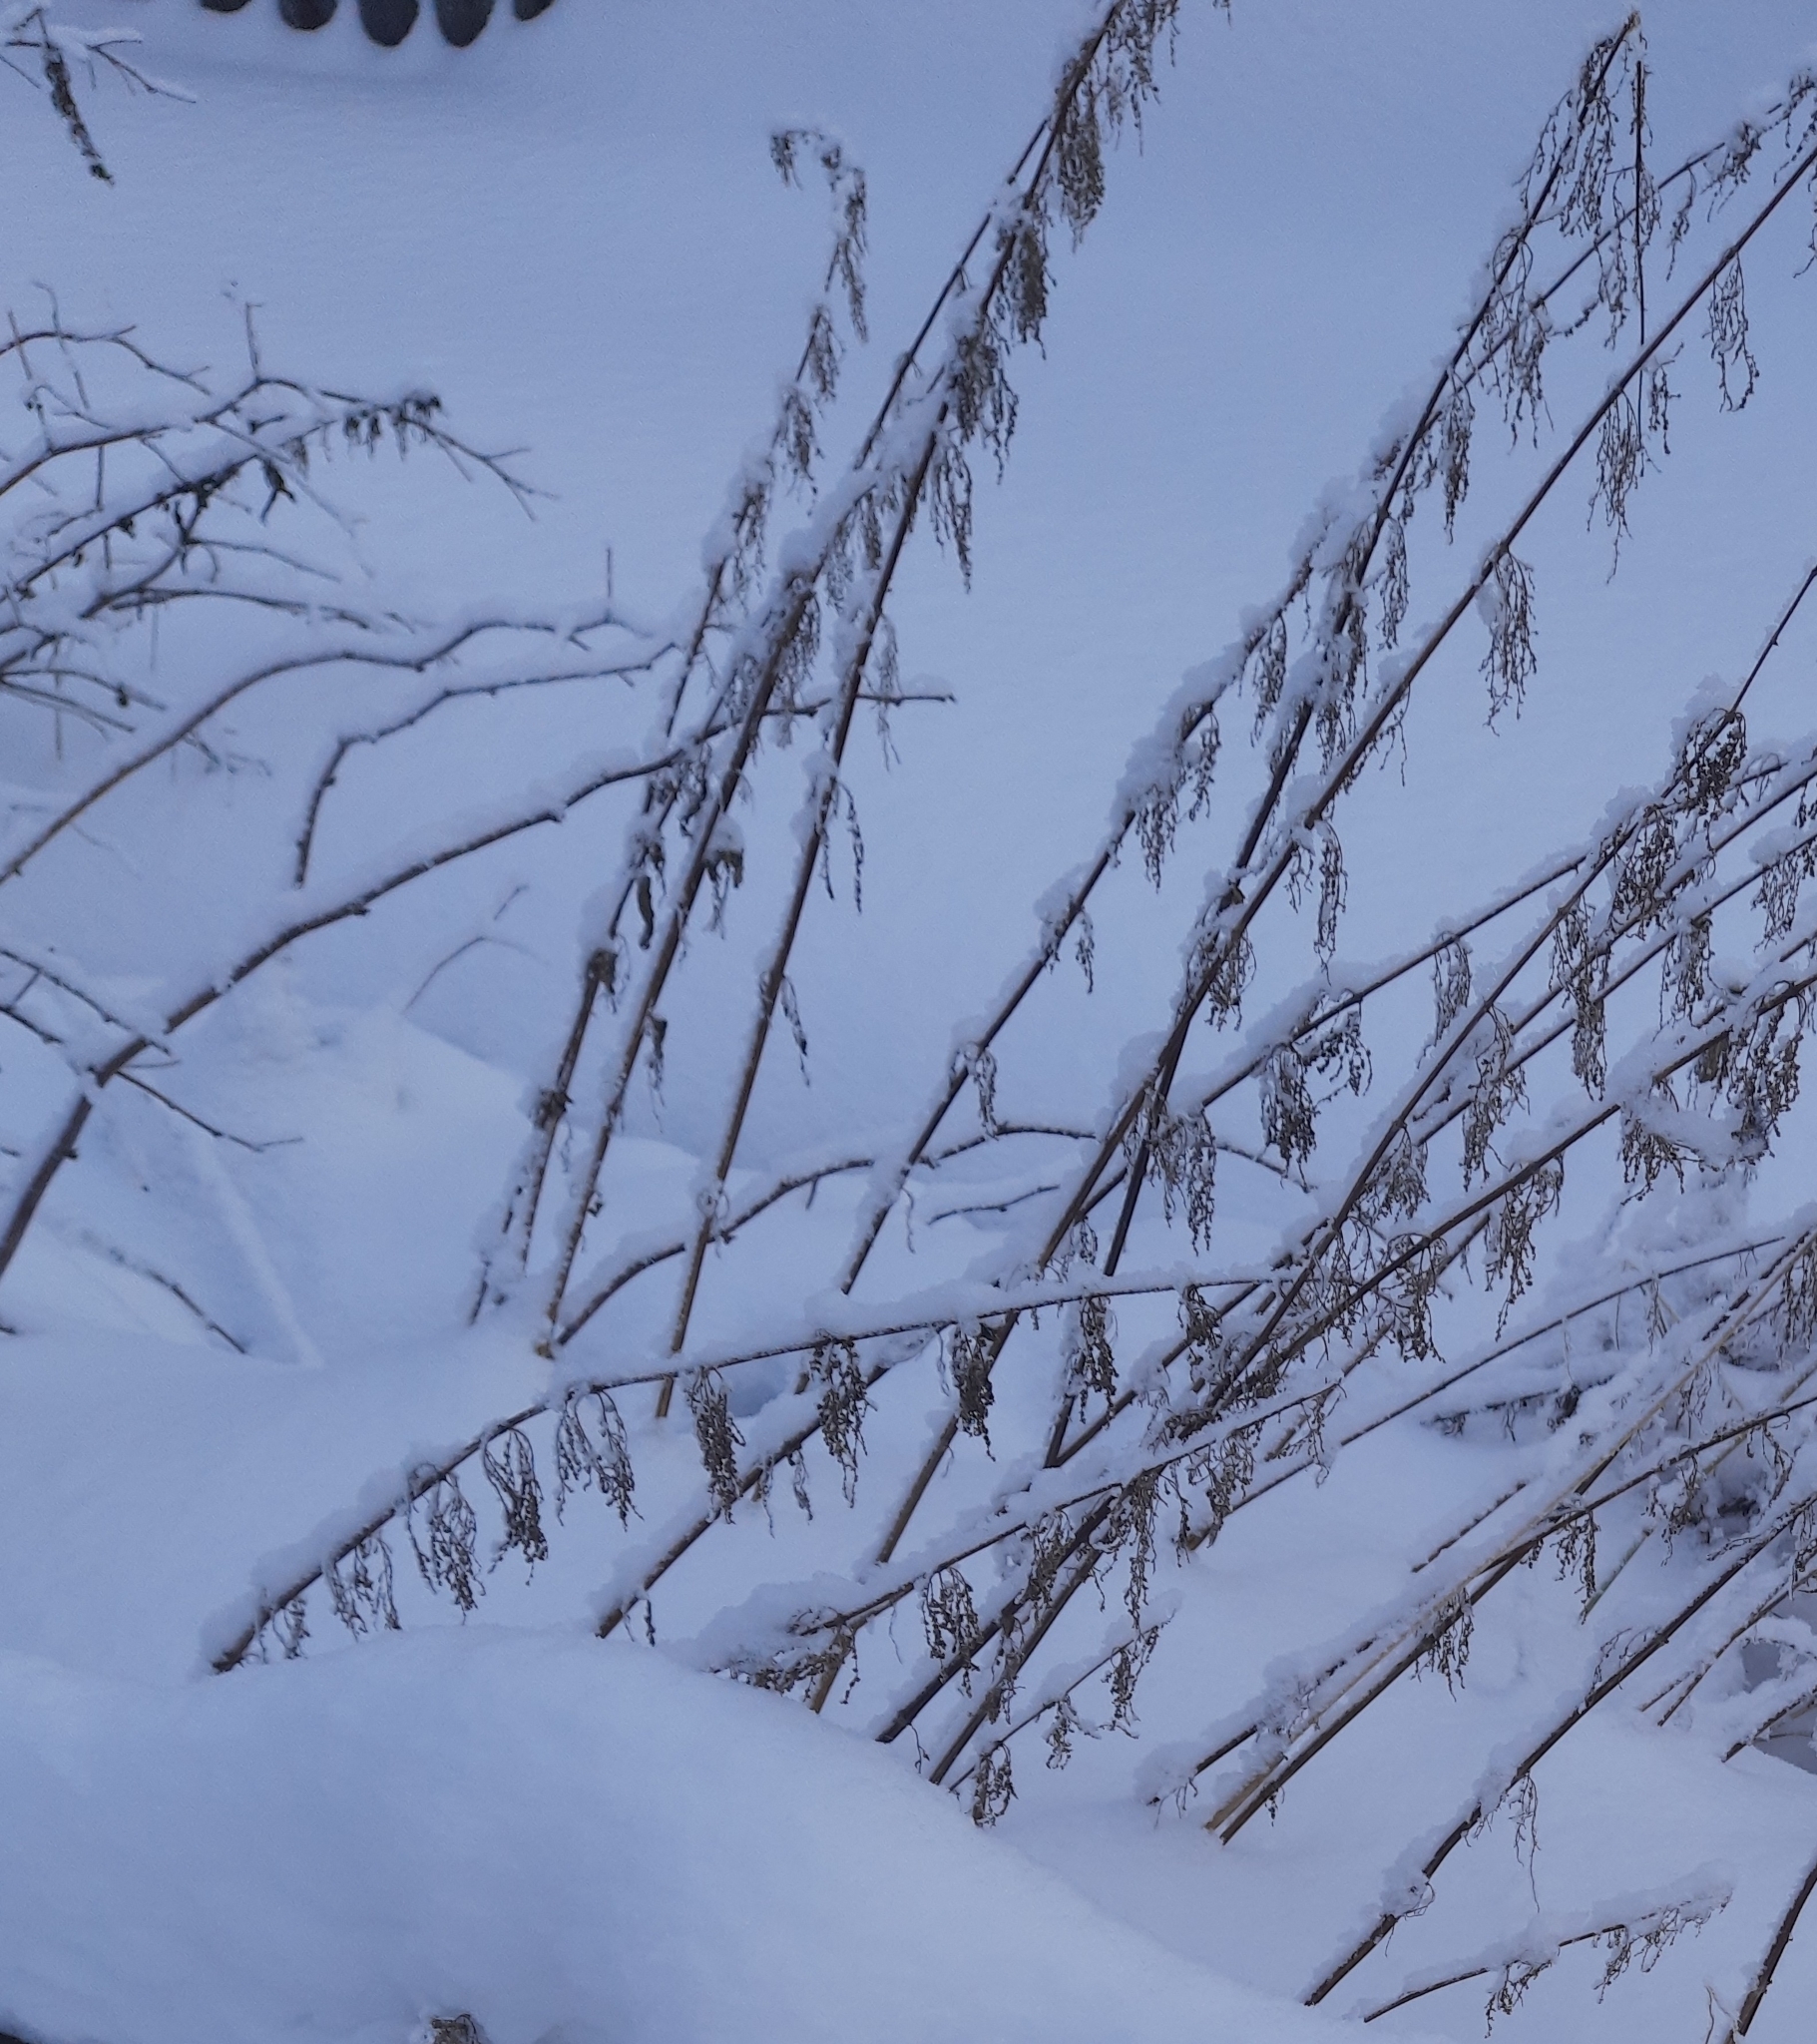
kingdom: Plantae
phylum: Tracheophyta
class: Magnoliopsida
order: Rosales
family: Urticaceae
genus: Urtica
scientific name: Urtica dioica
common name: Common nettle
